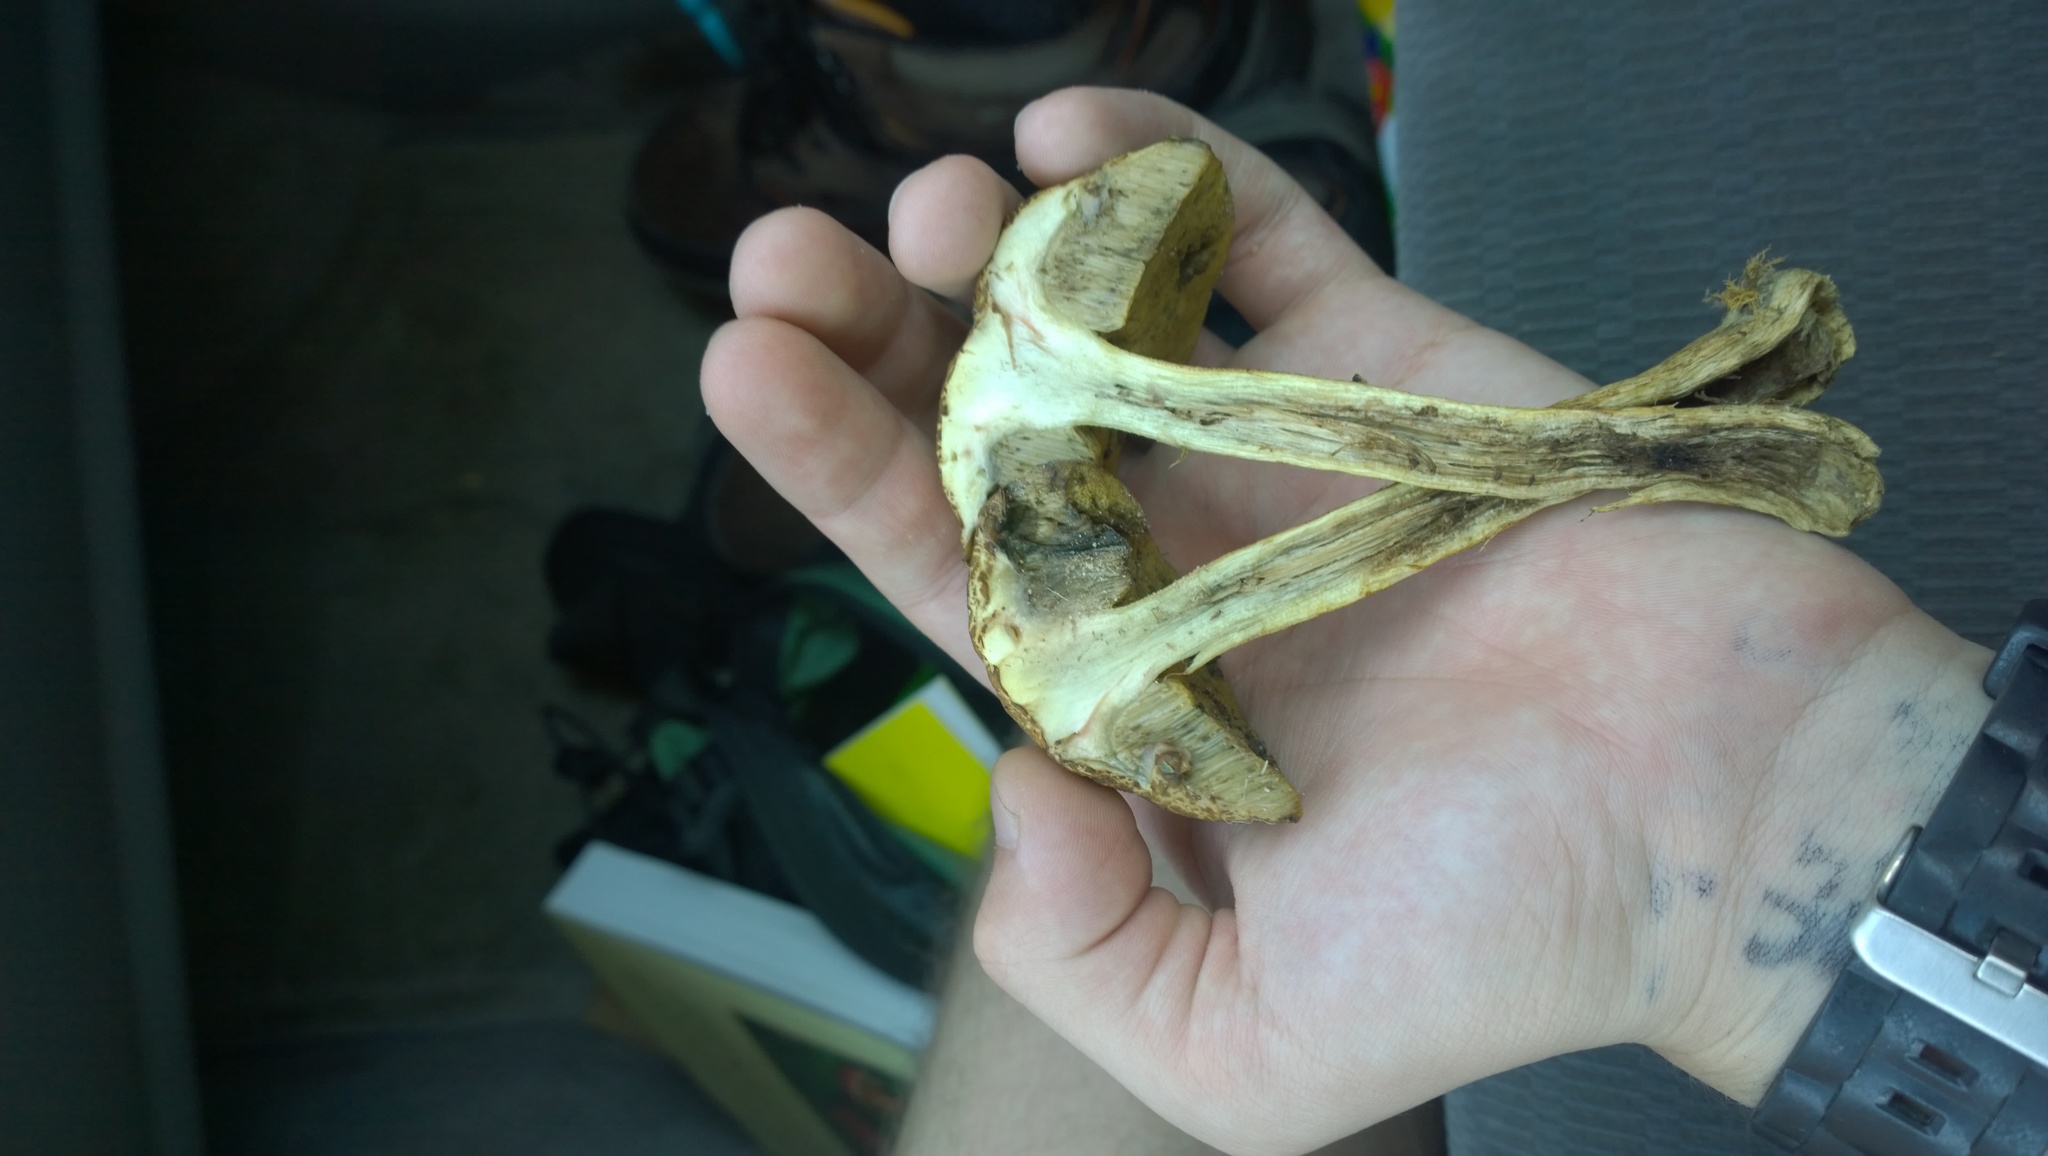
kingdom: Fungi
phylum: Basidiomycota
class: Agaricomycetes
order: Boletales
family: Boletaceae
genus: Leccinellum
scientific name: Leccinellum rugosiceps
